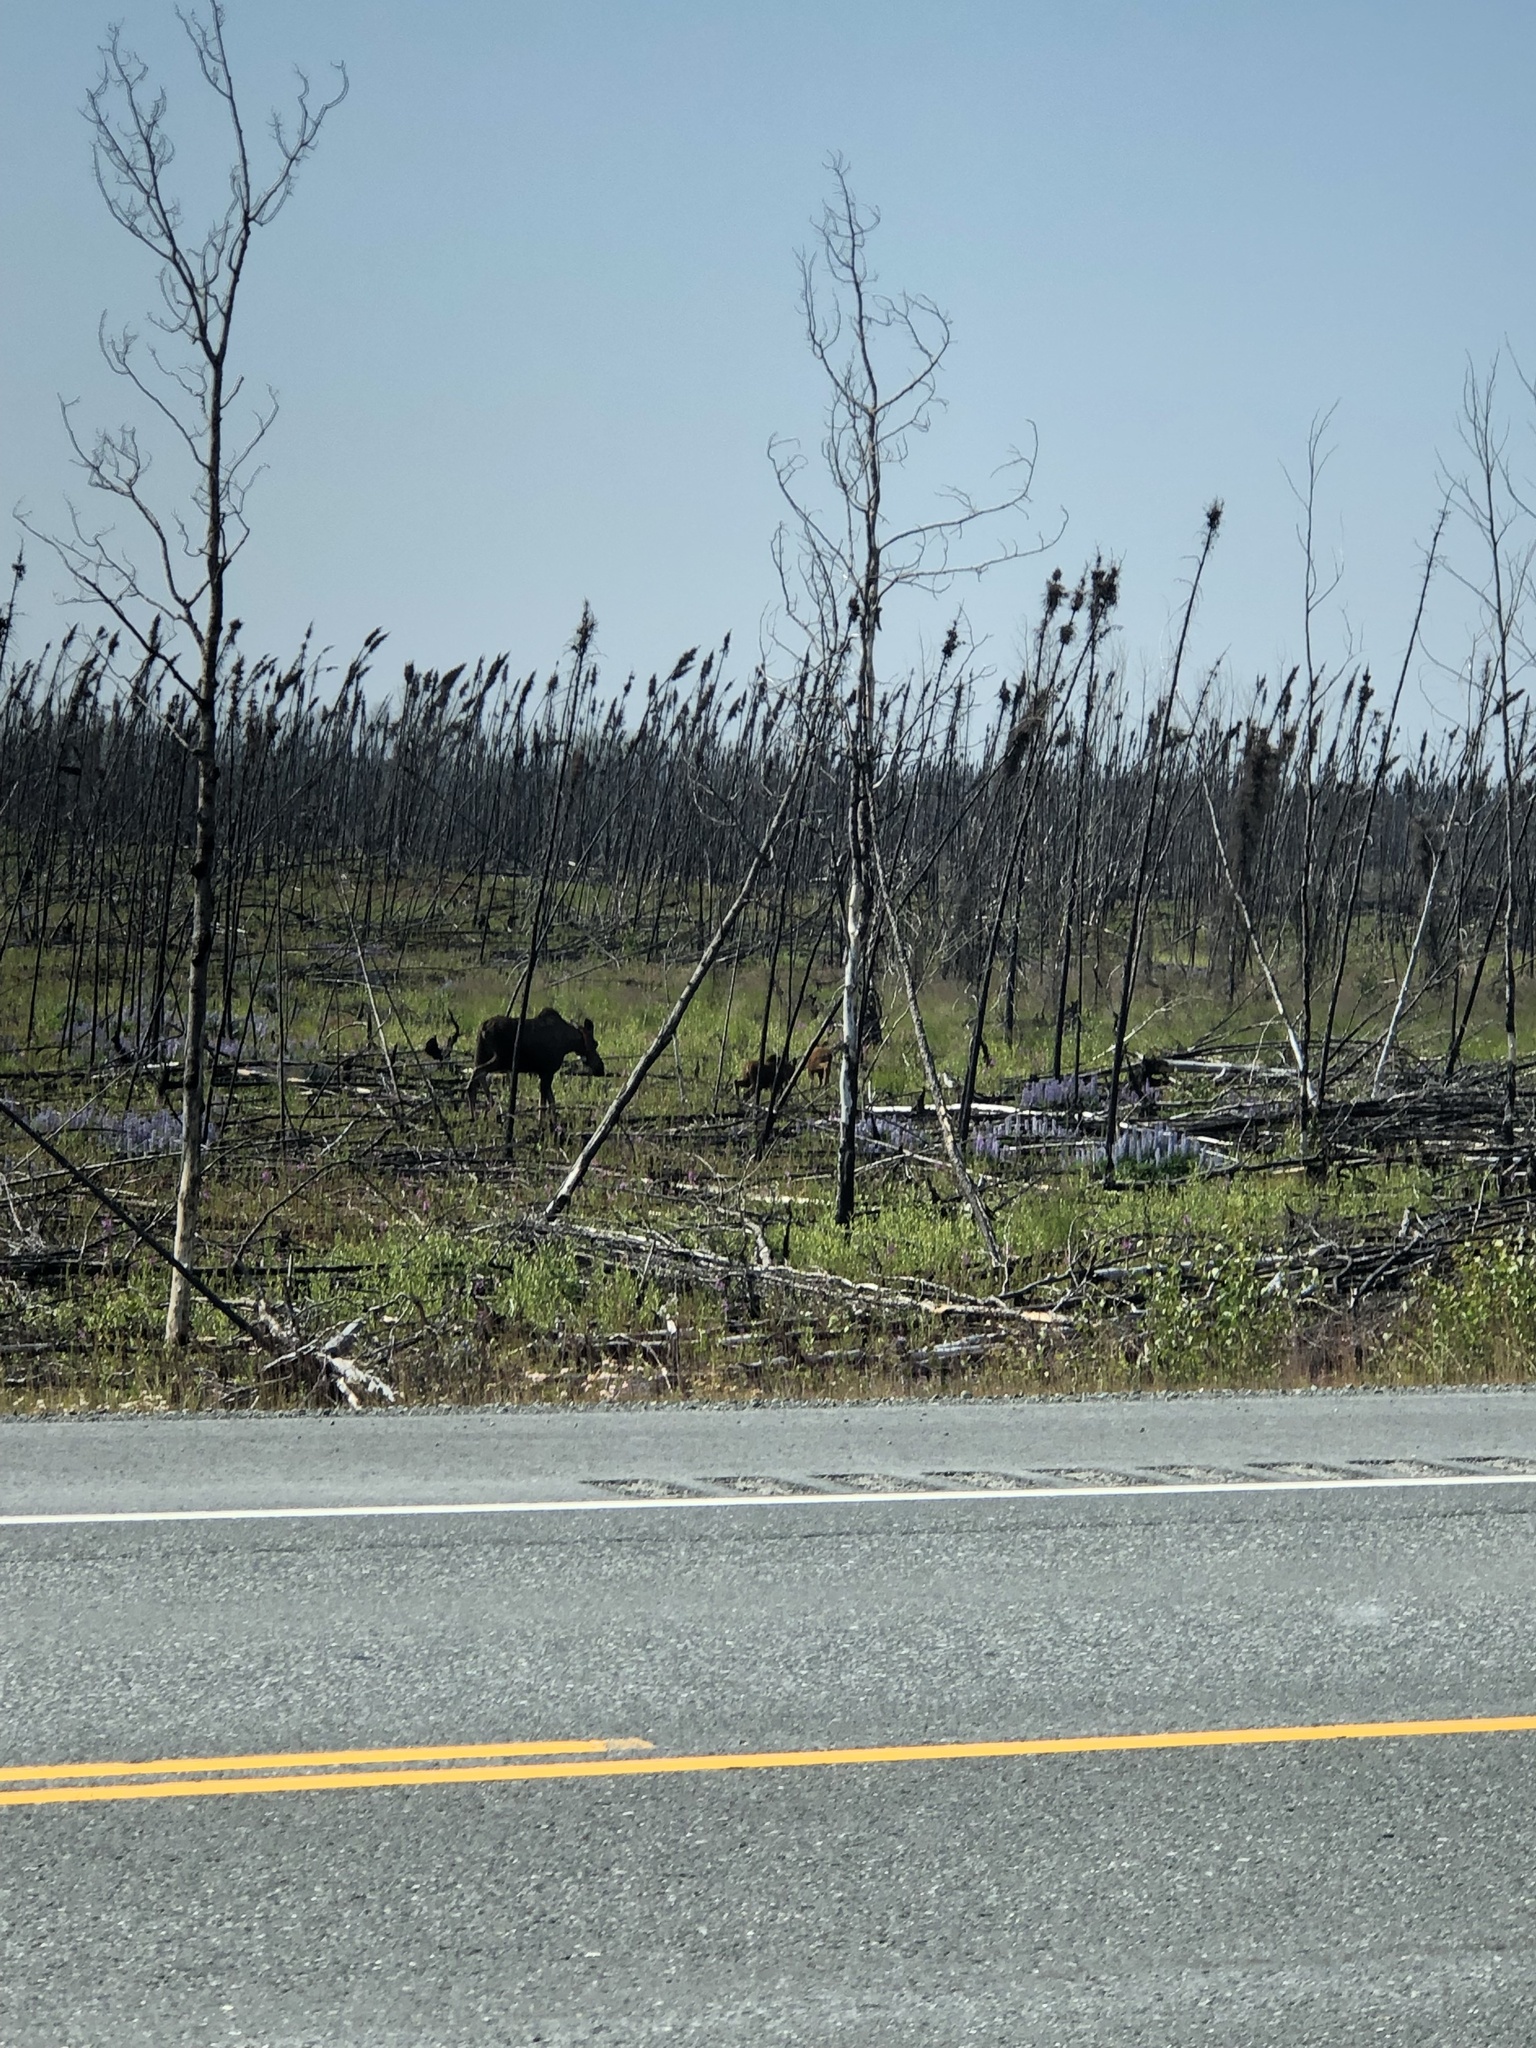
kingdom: Animalia
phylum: Chordata
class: Mammalia
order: Artiodactyla
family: Cervidae
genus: Alces
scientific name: Alces alces
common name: Moose
